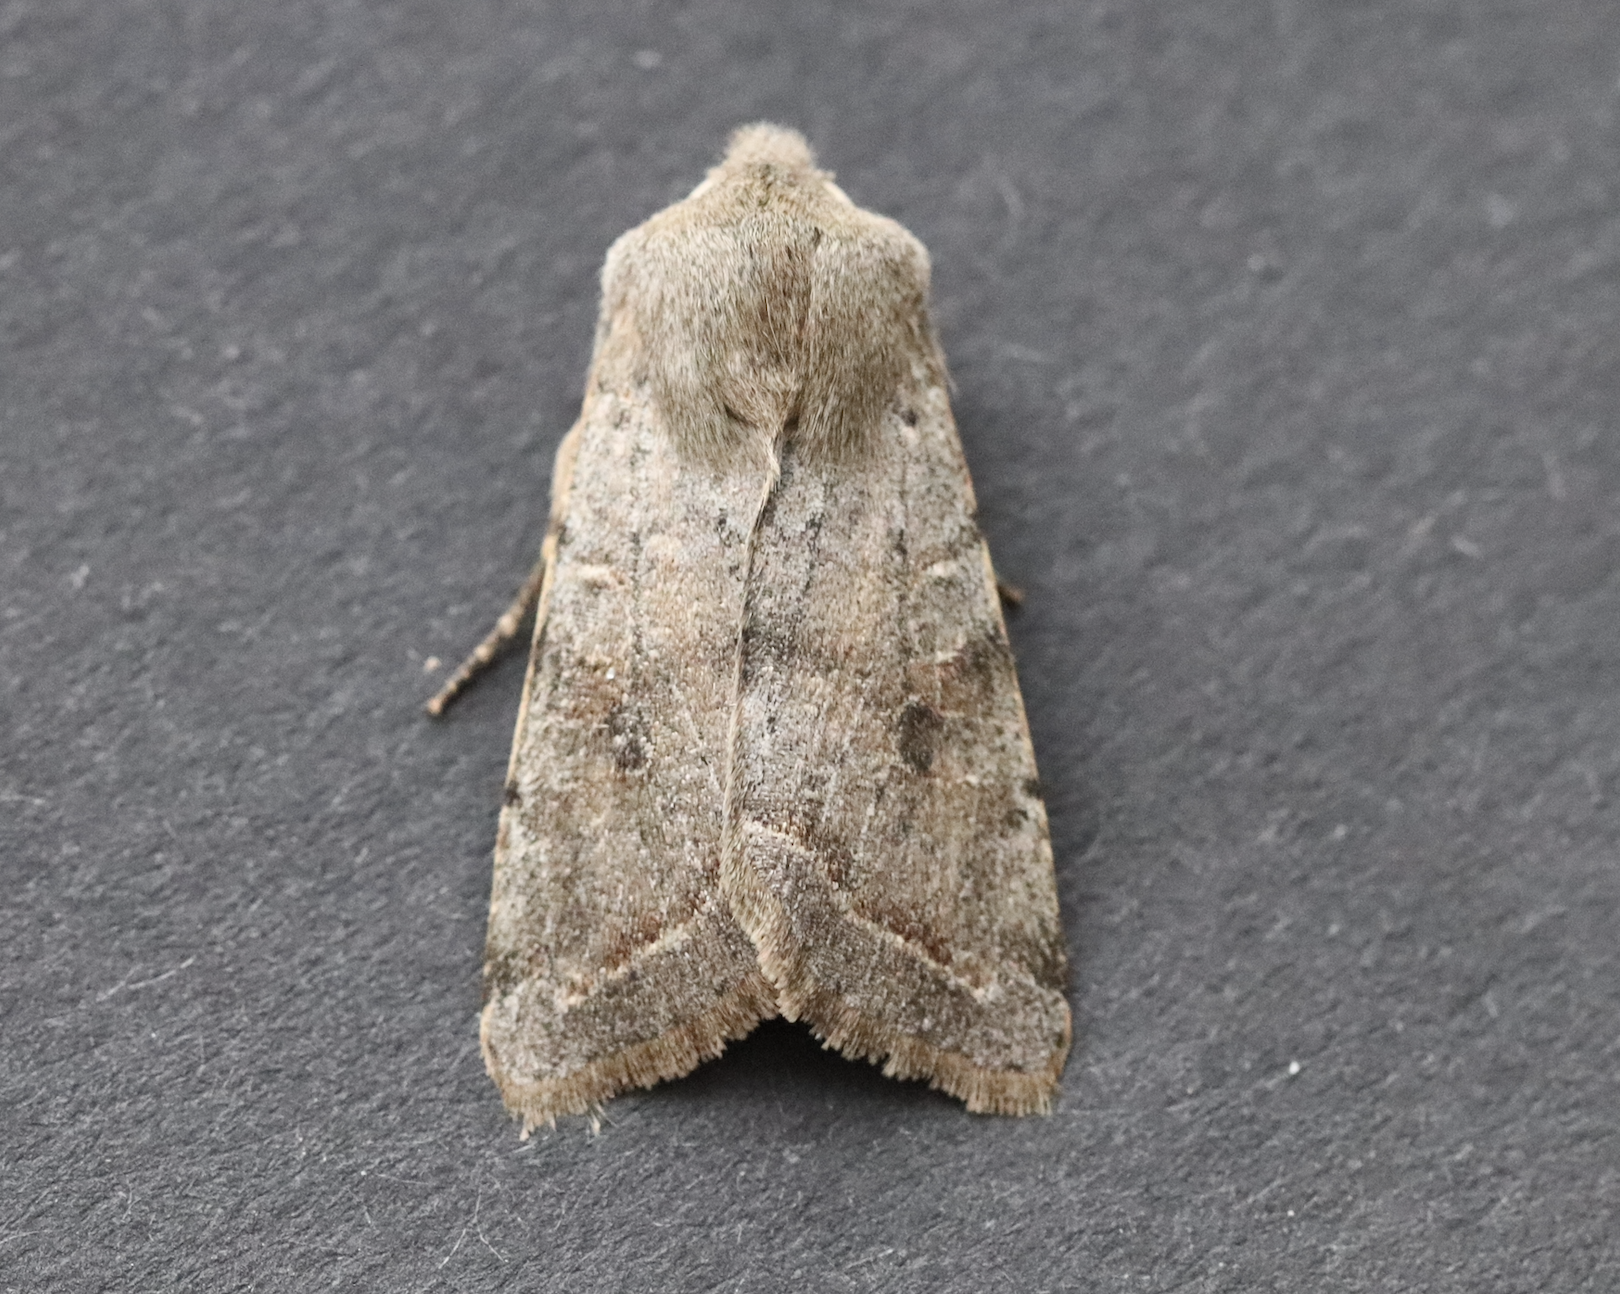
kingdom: Animalia
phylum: Arthropoda
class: Insecta
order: Lepidoptera
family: Noctuidae
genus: Orthosia
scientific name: Orthosia incerta
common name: Clouded drab
